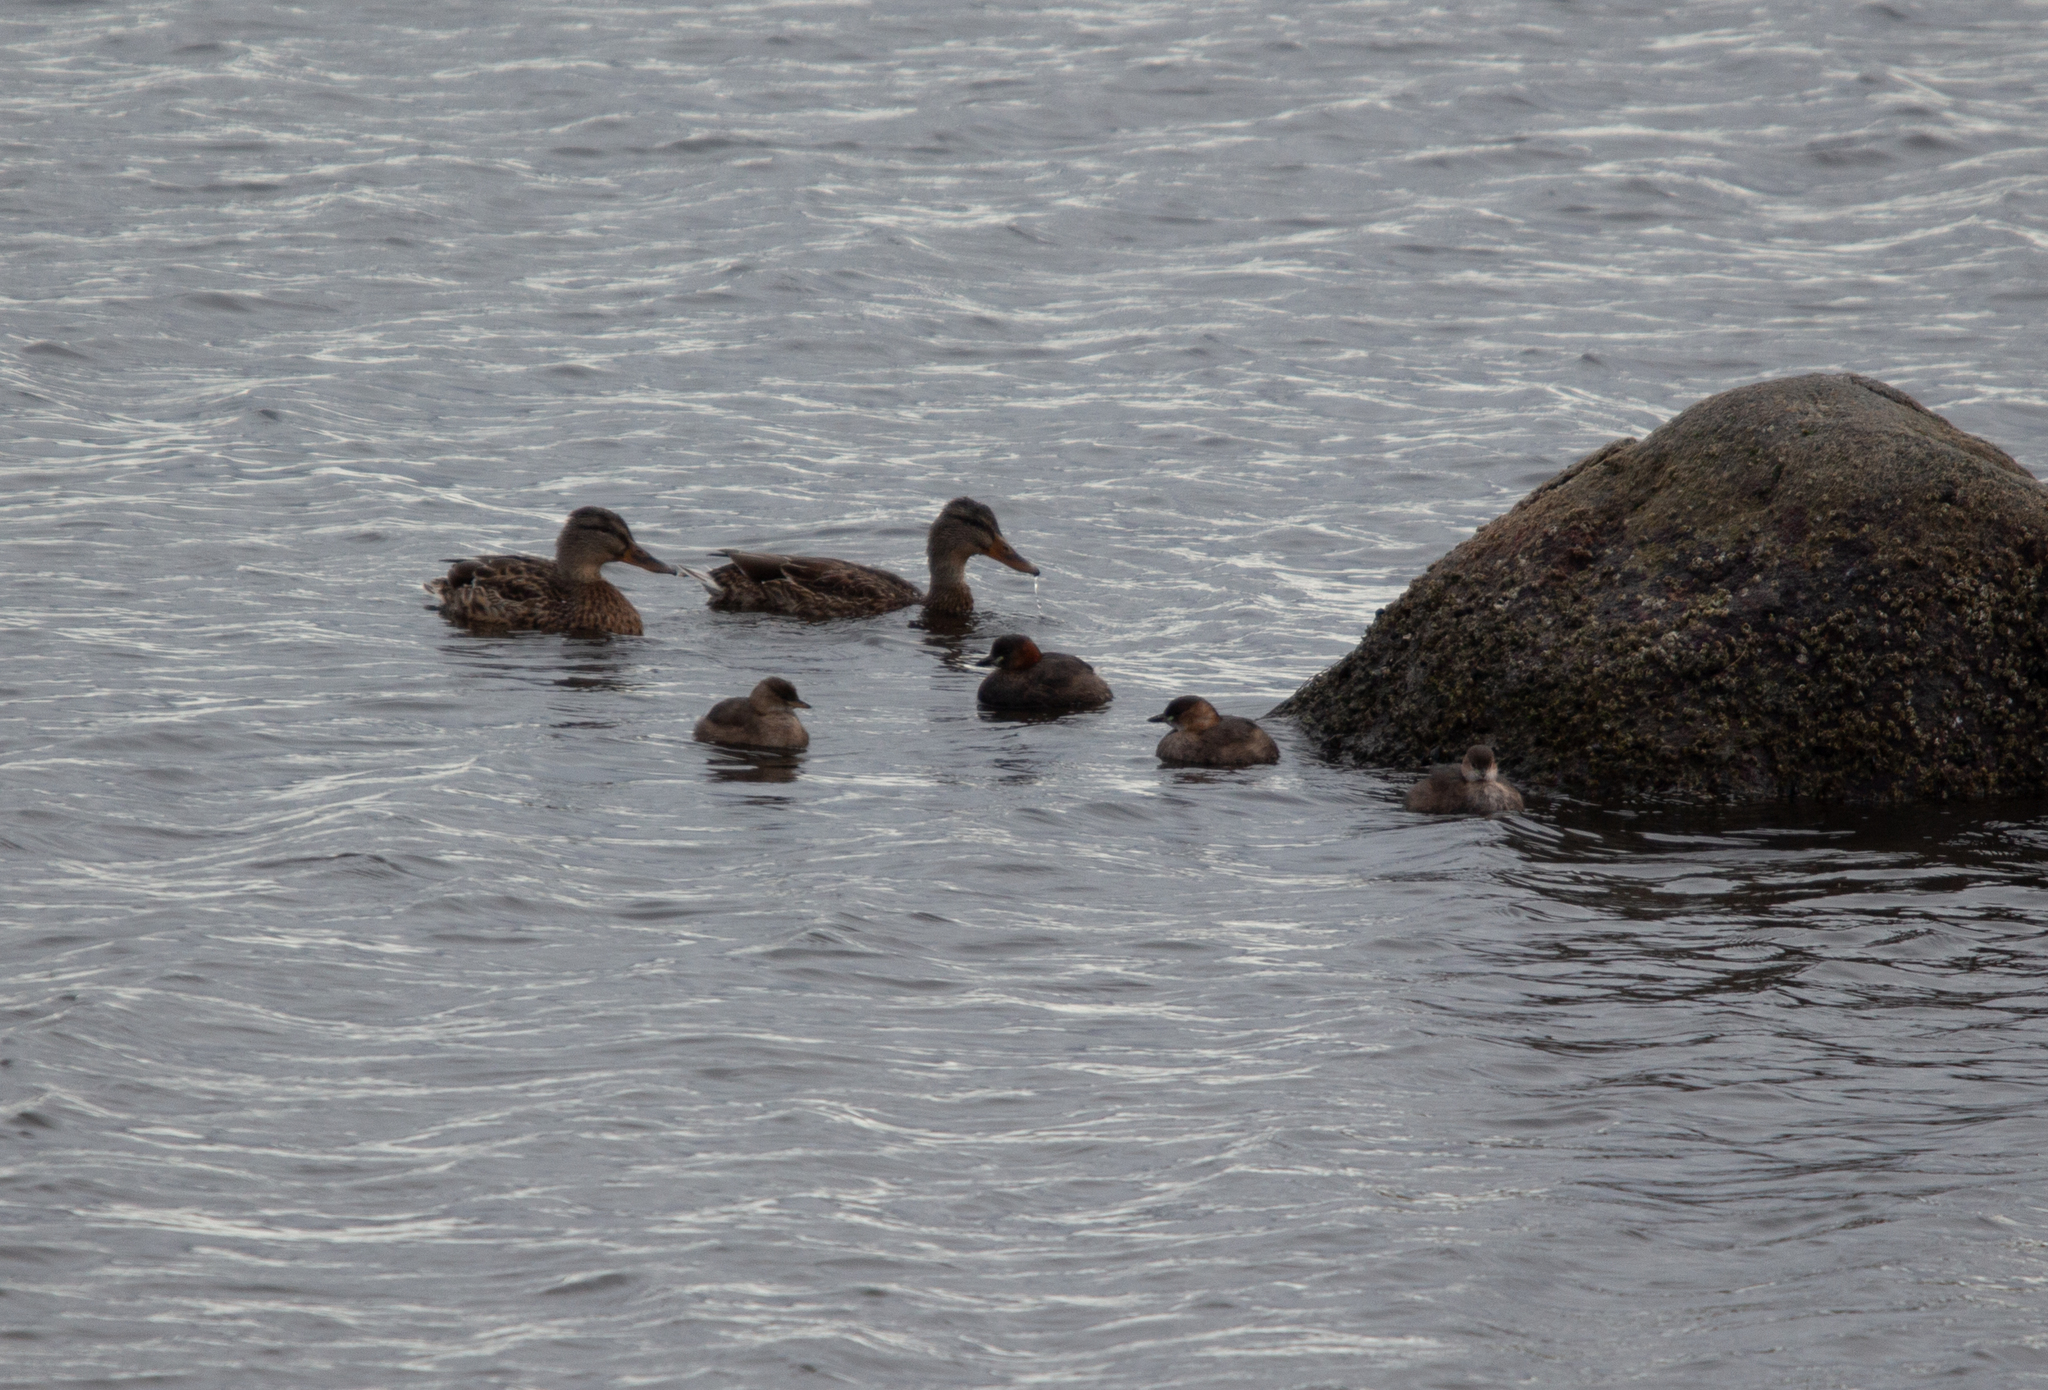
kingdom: Animalia
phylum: Chordata
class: Aves
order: Podicipediformes
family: Podicipedidae
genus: Tachybaptus
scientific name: Tachybaptus ruficollis
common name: Little grebe
